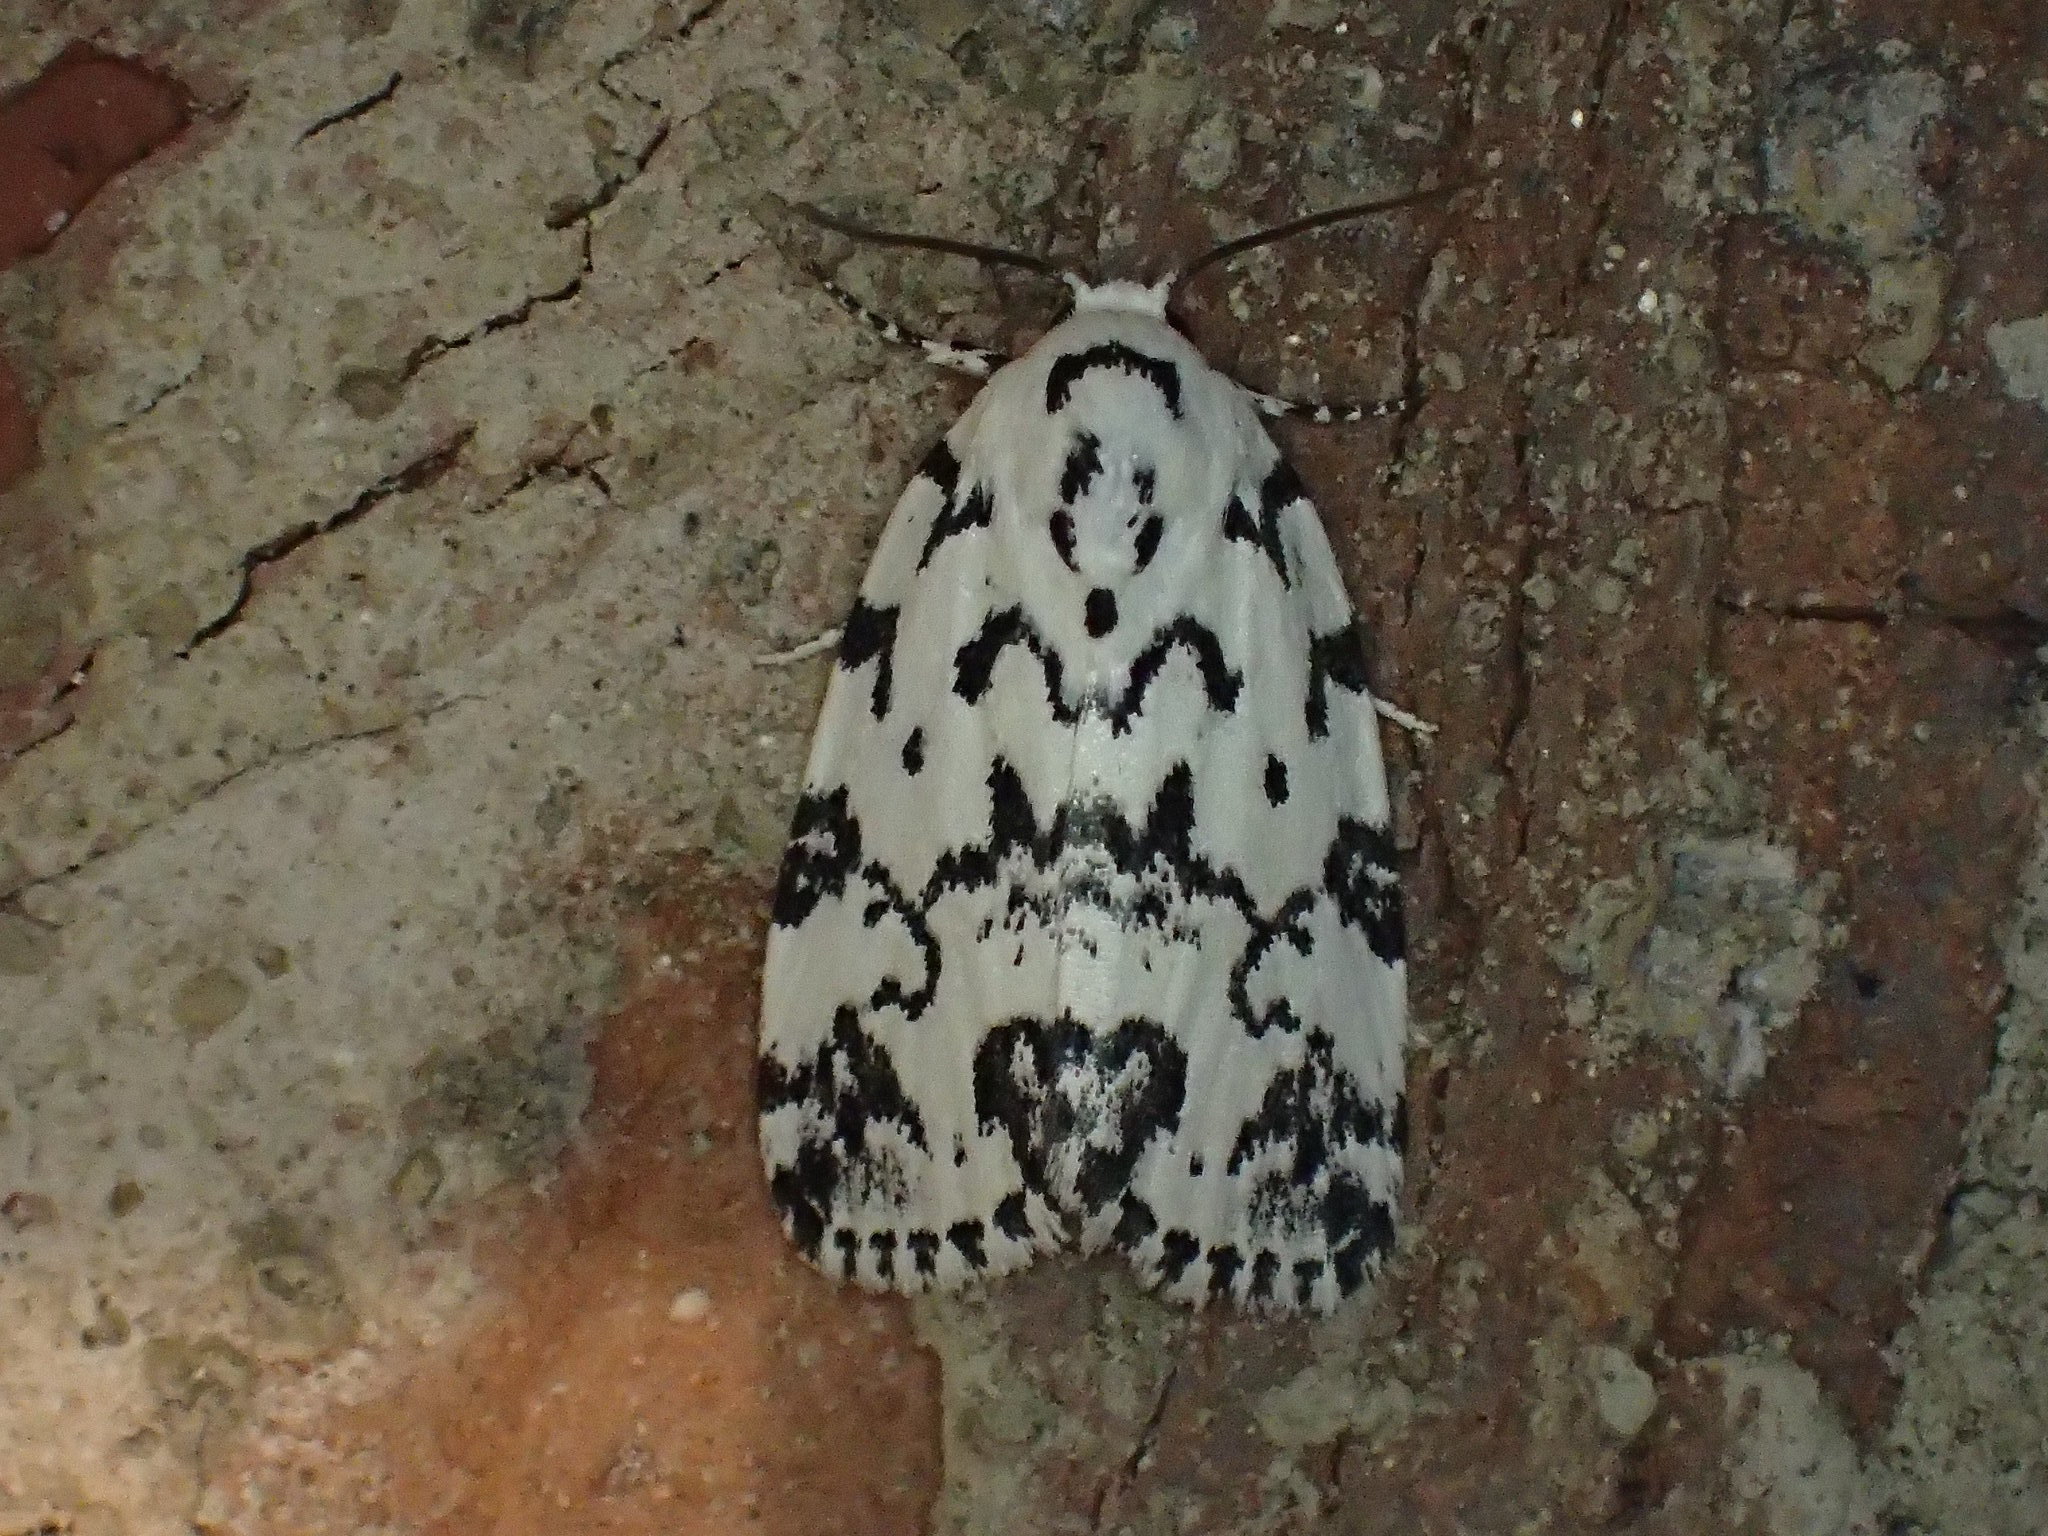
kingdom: Animalia
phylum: Arthropoda
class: Insecta
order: Lepidoptera
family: Noctuidae
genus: Polygrammate
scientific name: Polygrammate hebraeicum
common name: Hebrew moth
